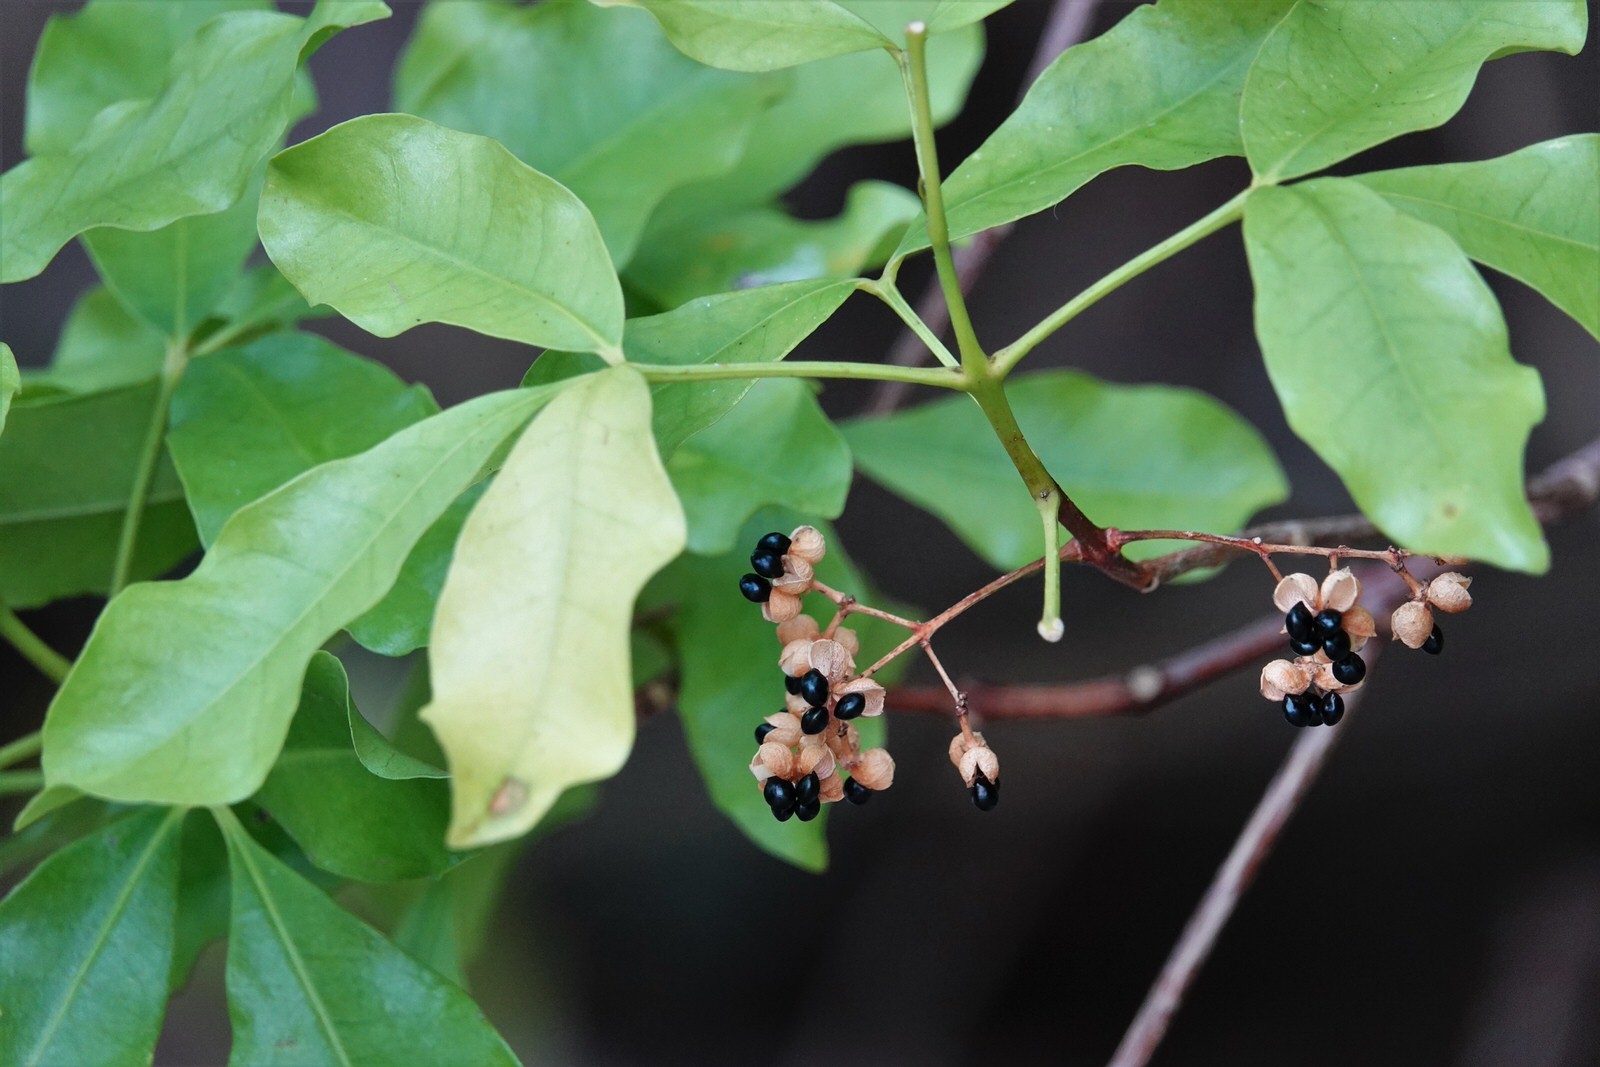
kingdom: Plantae
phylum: Tracheophyta
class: Magnoliopsida
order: Sapindales
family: Rutaceae
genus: Melicope
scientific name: Melicope ternata
